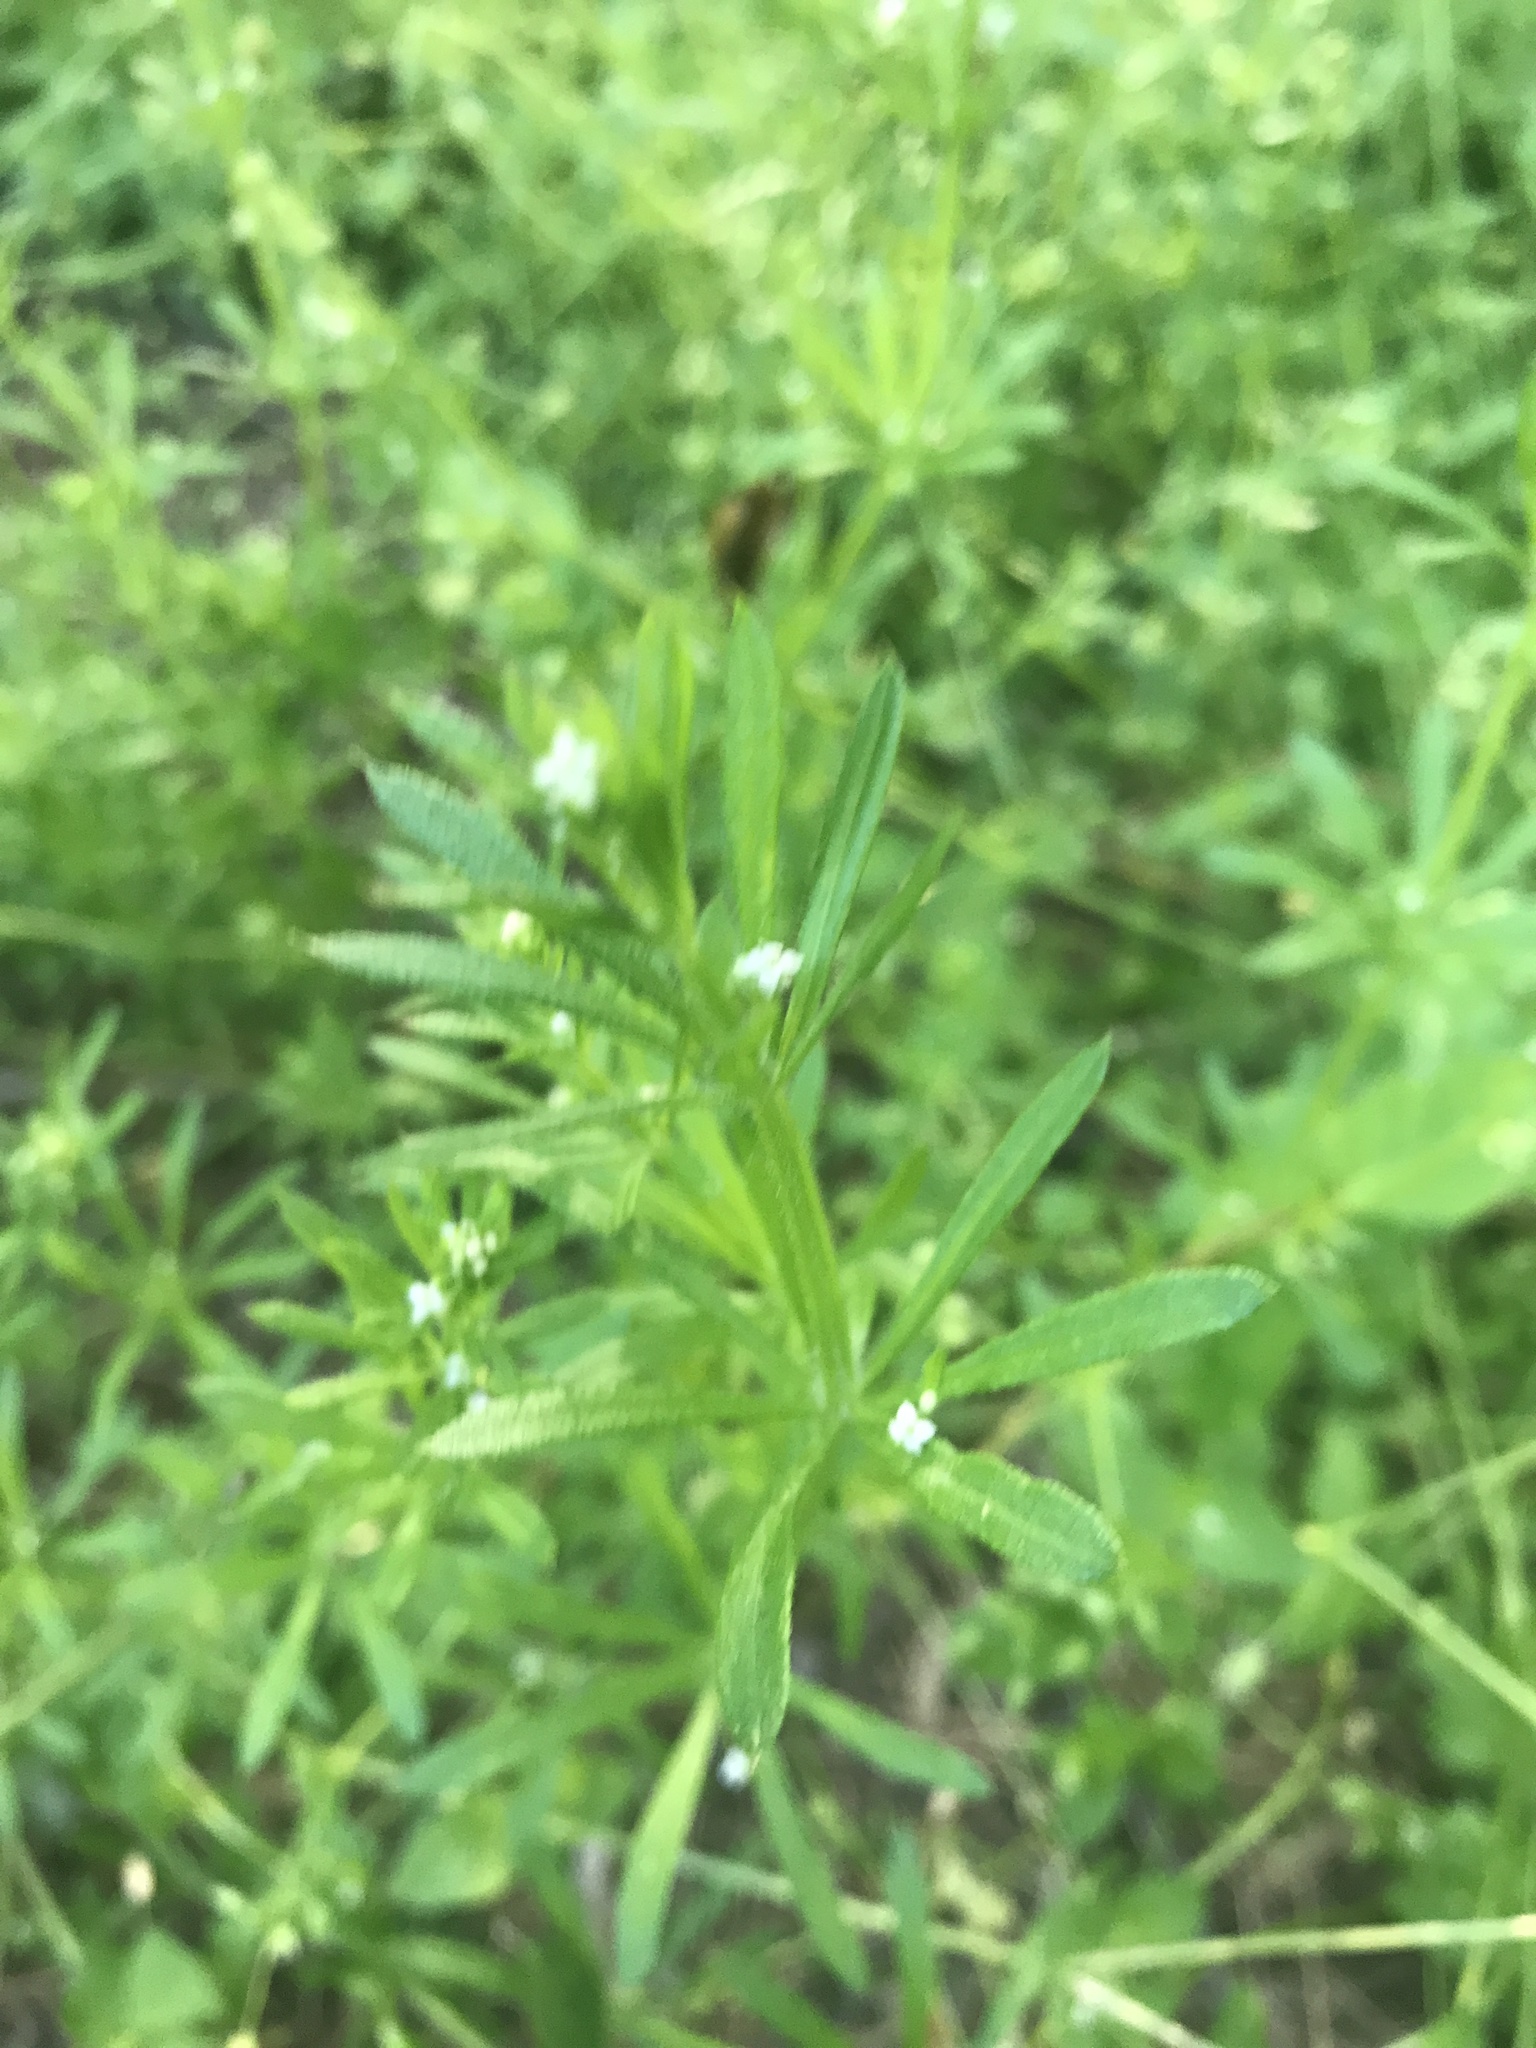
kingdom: Plantae
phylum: Tracheophyta
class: Magnoliopsida
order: Gentianales
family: Rubiaceae
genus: Galium
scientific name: Galium aparine
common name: Cleavers
